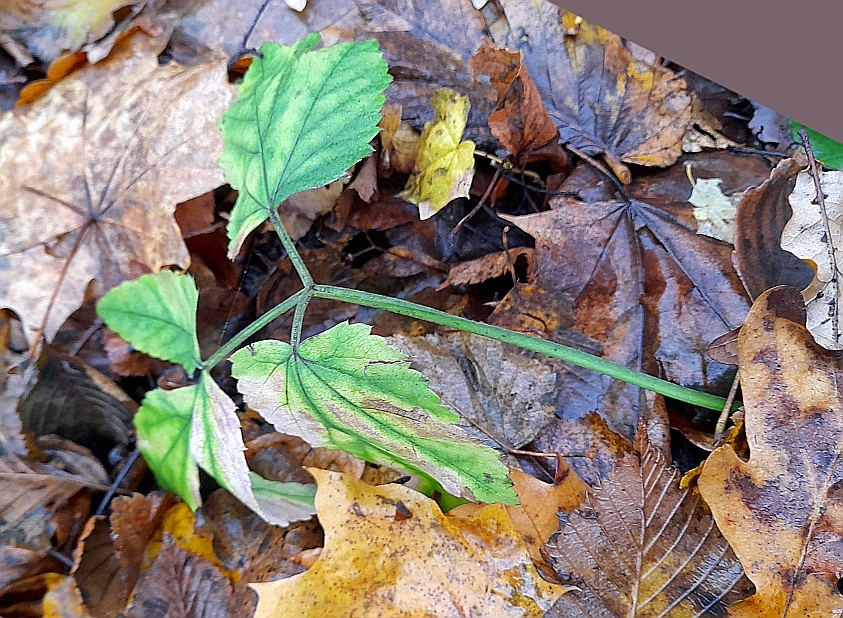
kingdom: Plantae
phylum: Tracheophyta
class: Magnoliopsida
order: Apiales
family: Apiaceae
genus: Aegopodium
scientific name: Aegopodium podagraria
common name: Ground-elder
